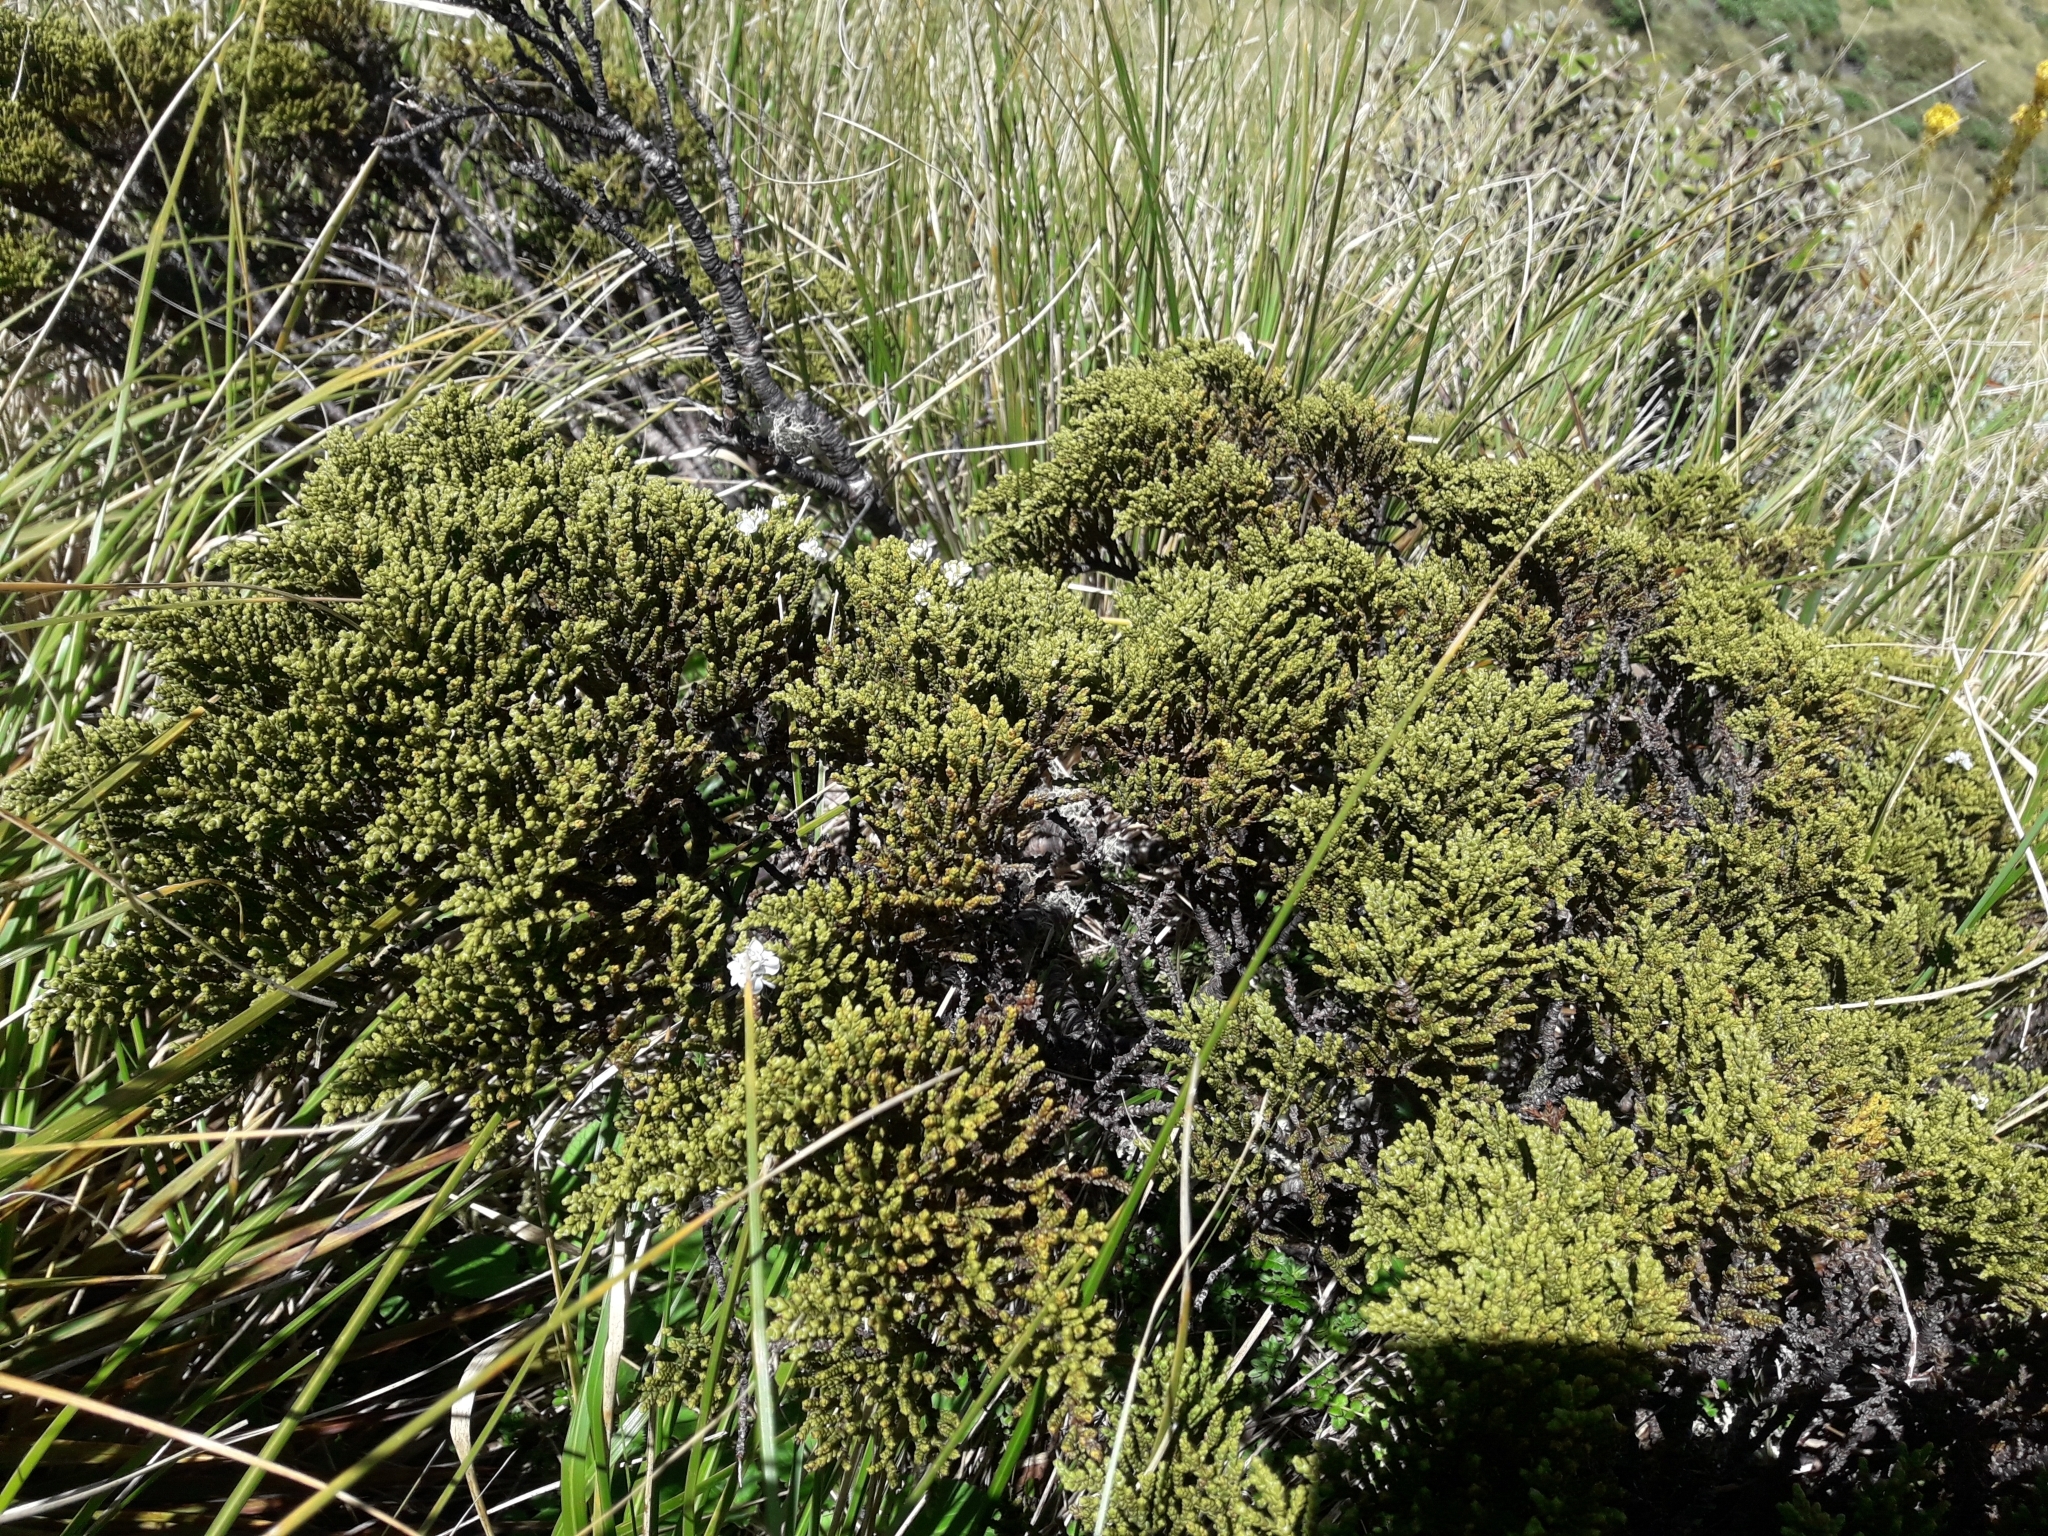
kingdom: Plantae
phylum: Tracheophyta
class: Magnoliopsida
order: Lamiales
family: Plantaginaceae
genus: Veronica
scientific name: Veronica tetragona
